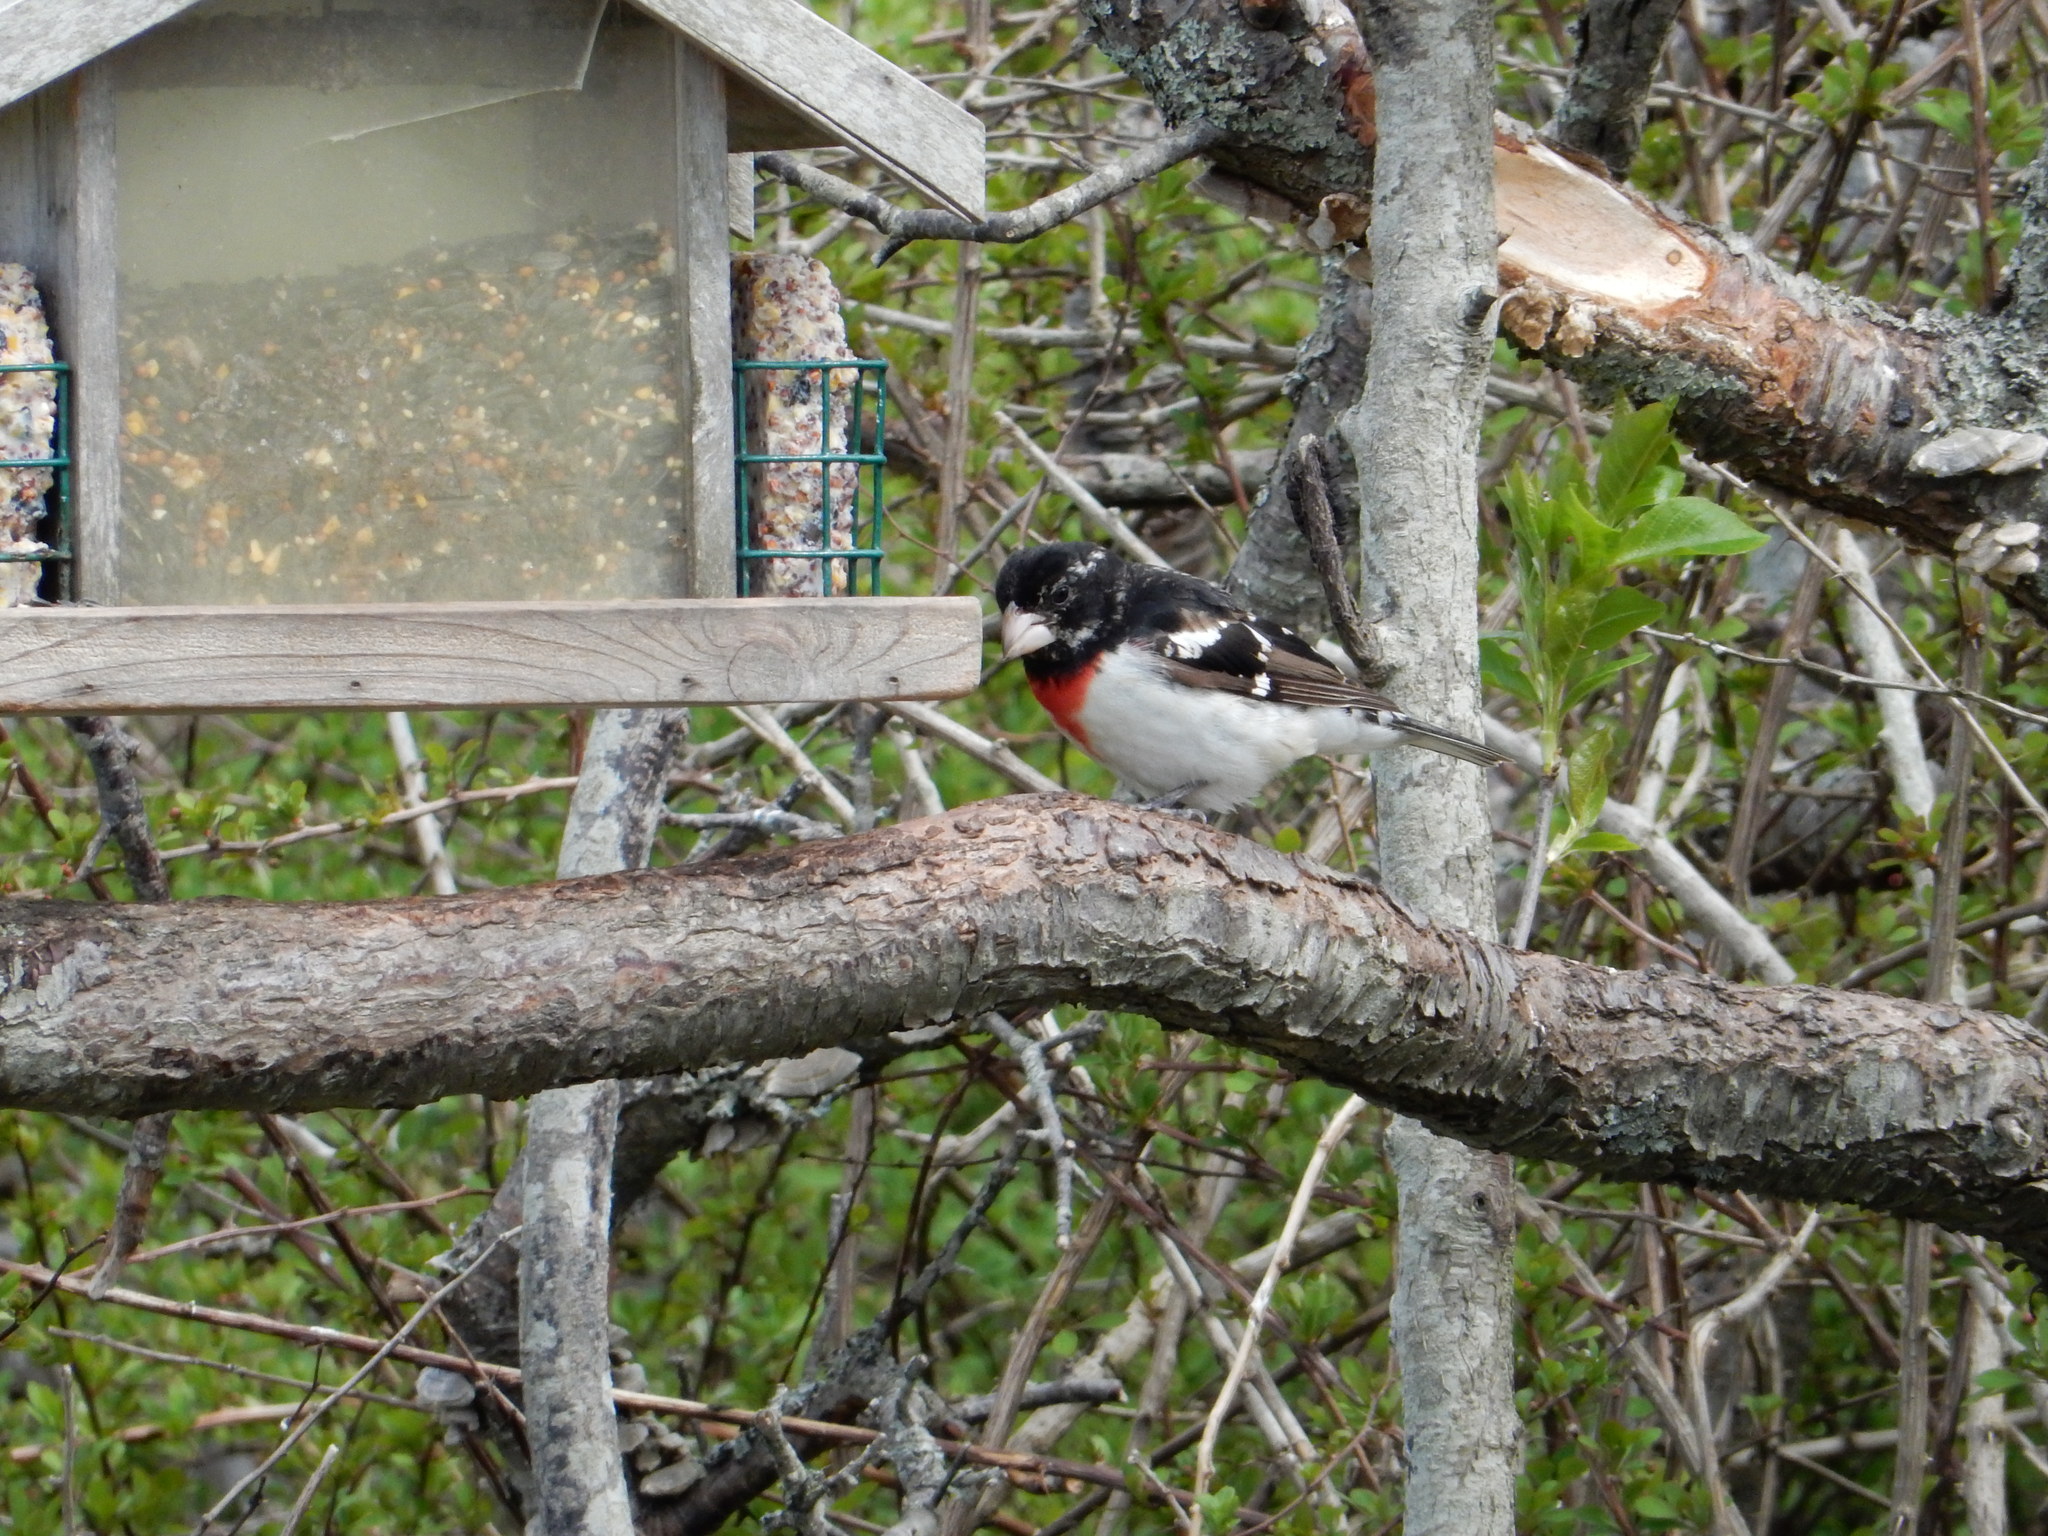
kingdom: Animalia
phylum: Chordata
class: Aves
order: Passeriformes
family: Cardinalidae
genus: Pheucticus
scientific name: Pheucticus ludovicianus
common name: Rose-breasted grosbeak
